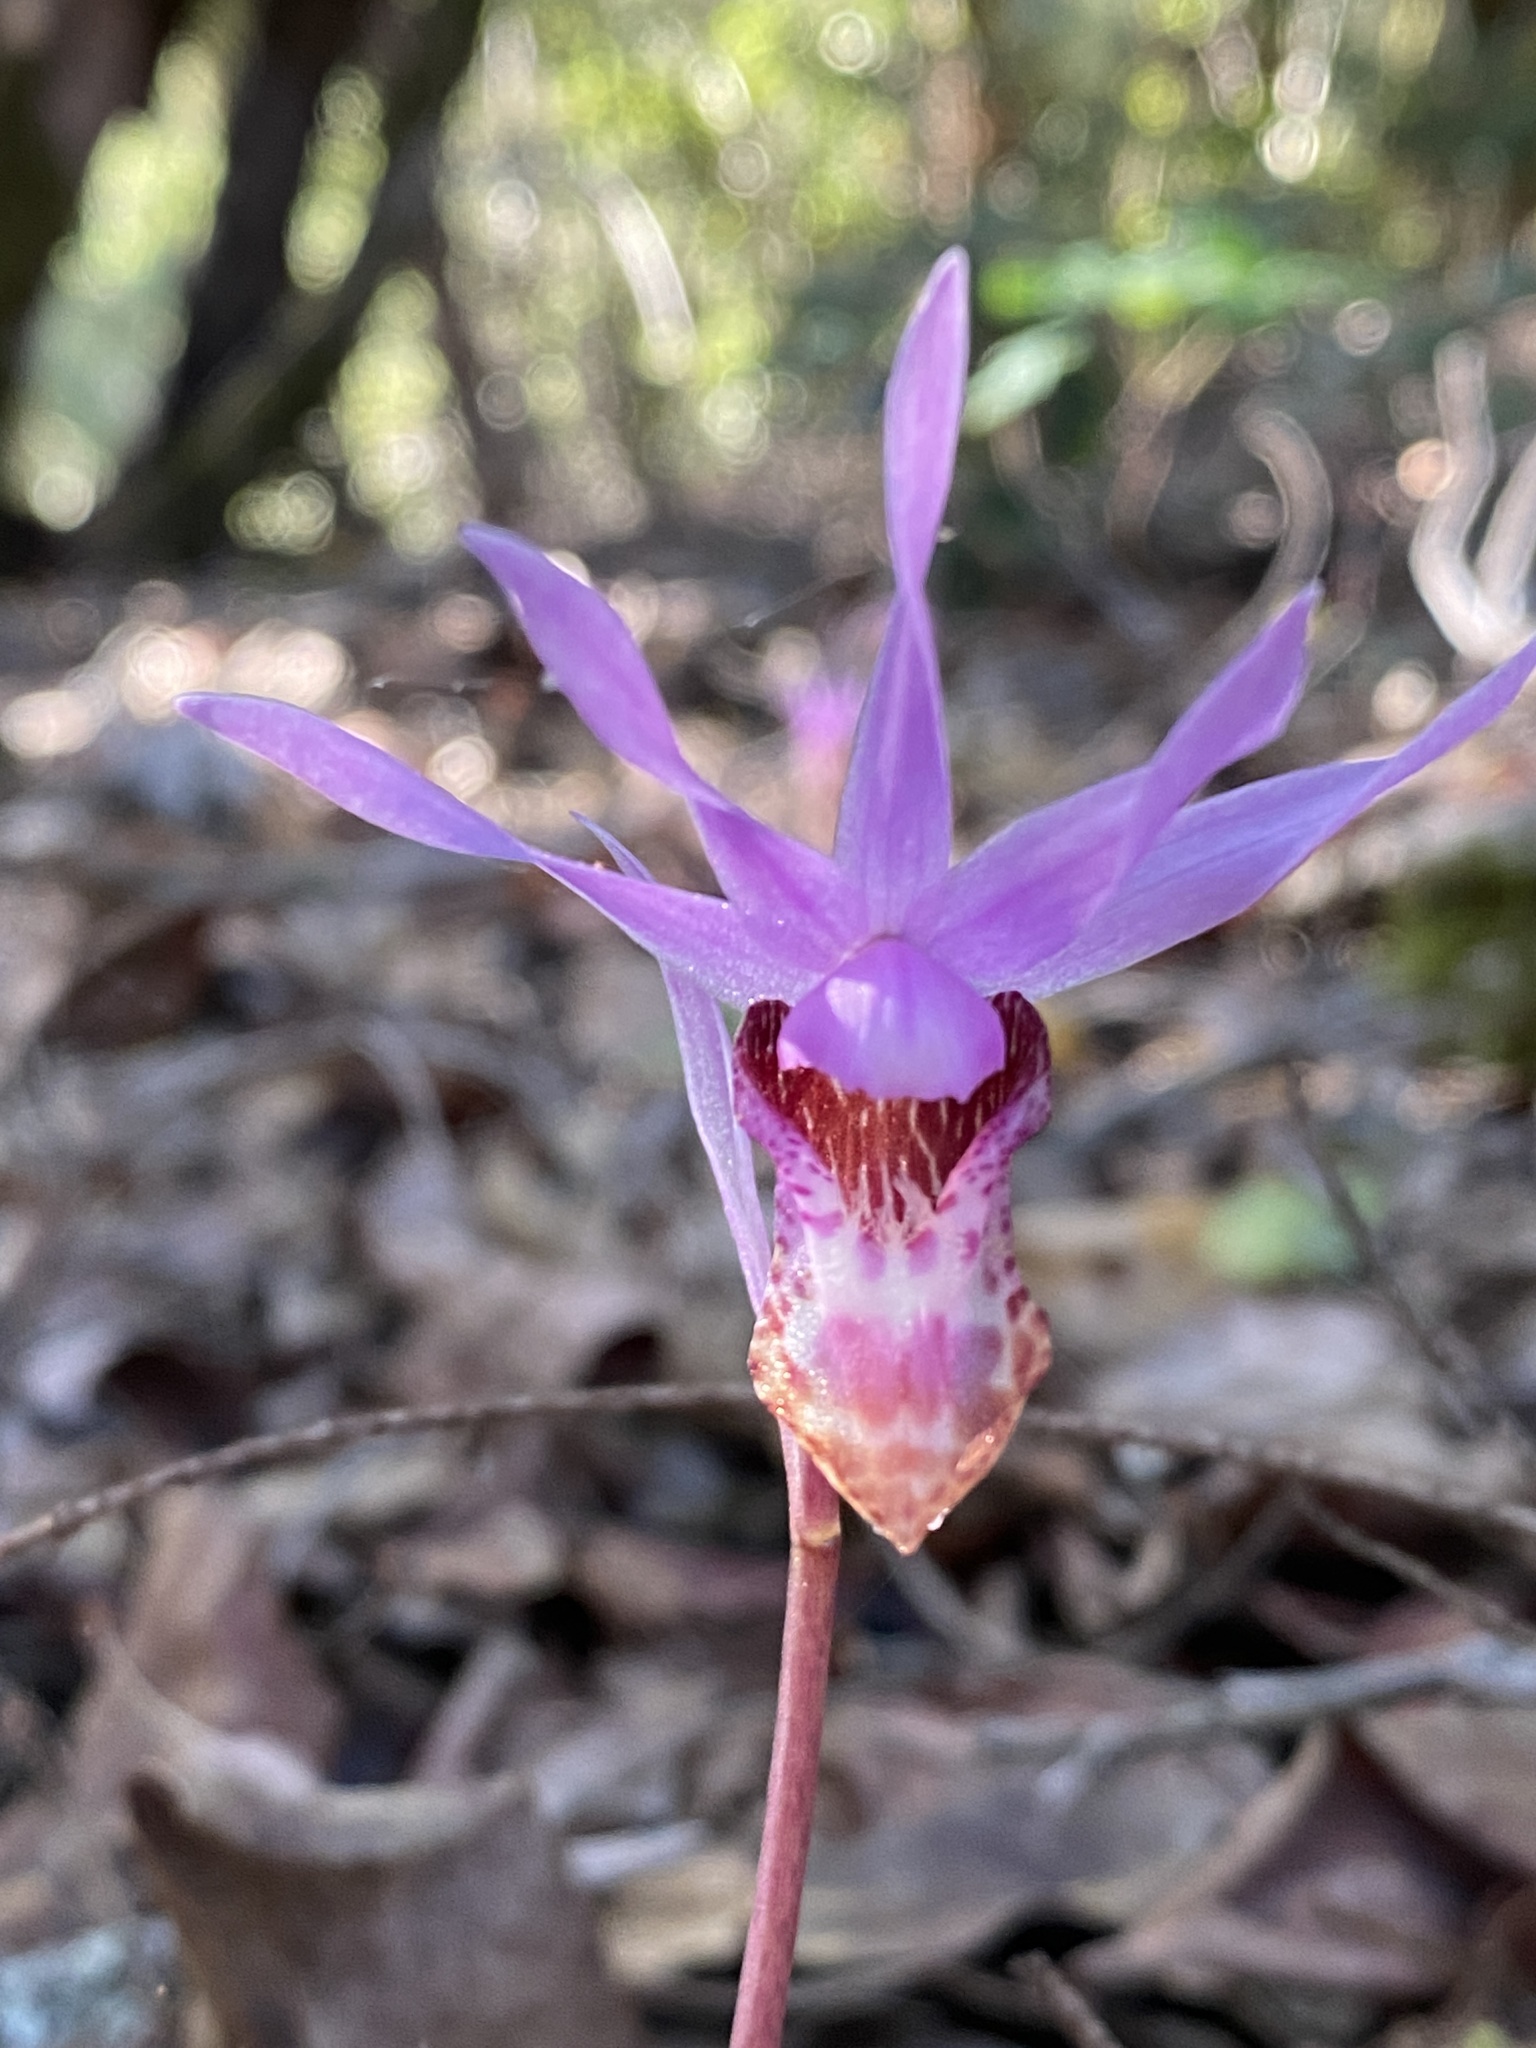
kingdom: Plantae
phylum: Tracheophyta
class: Liliopsida
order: Asparagales
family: Orchidaceae
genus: Calypso
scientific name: Calypso bulbosa
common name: Calypso
